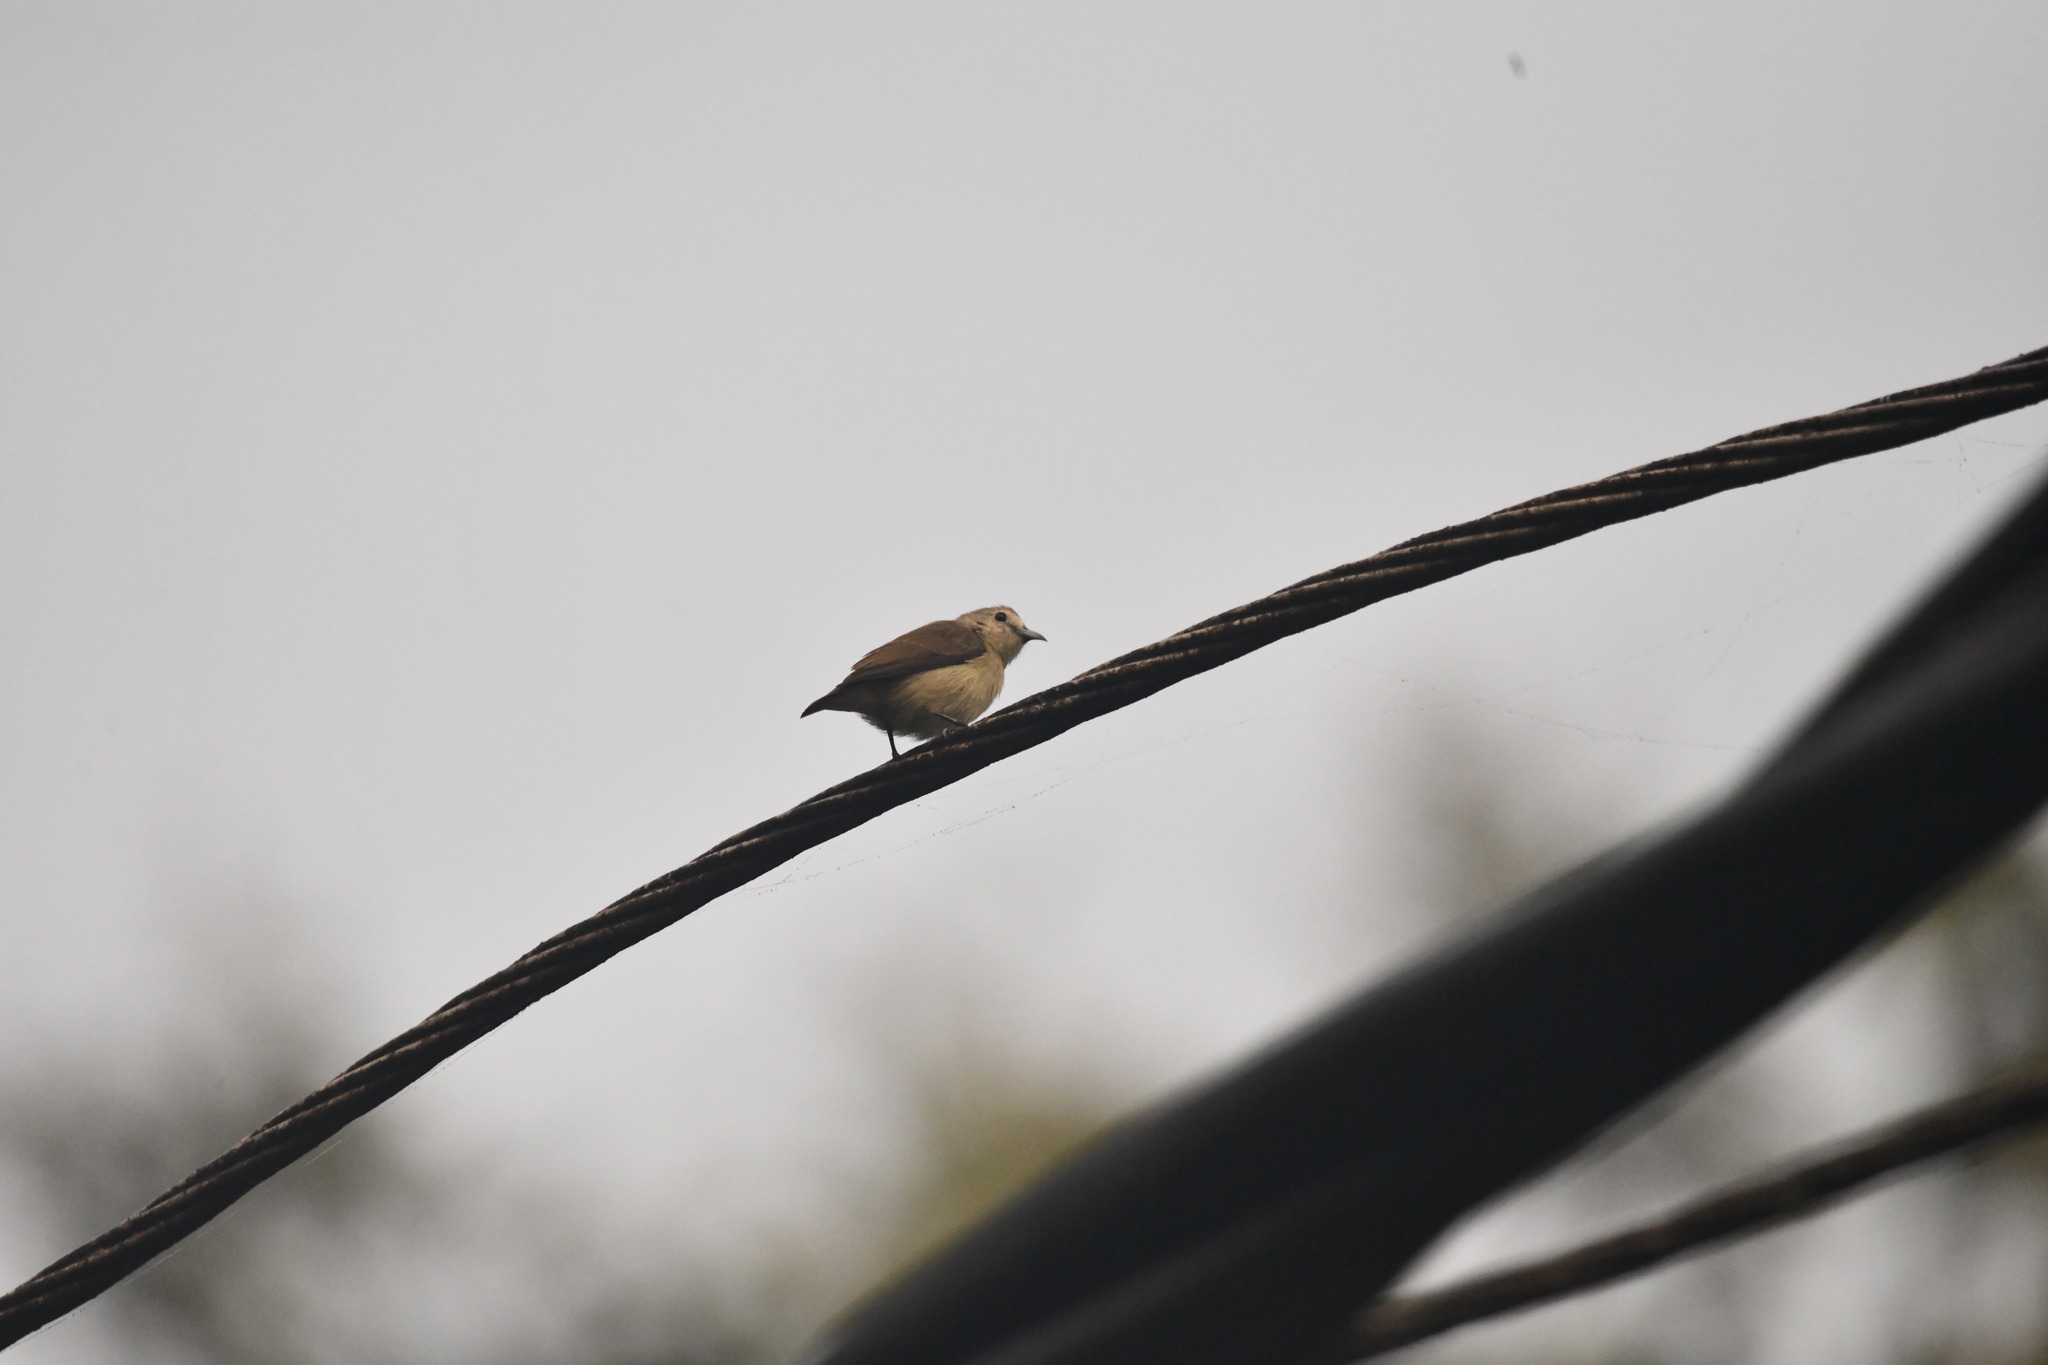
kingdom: Animalia
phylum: Chordata
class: Aves
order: Passeriformes
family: Dicaeidae
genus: Dicaeum
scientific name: Dicaeum concolor
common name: Nilgiri flowerpecker
